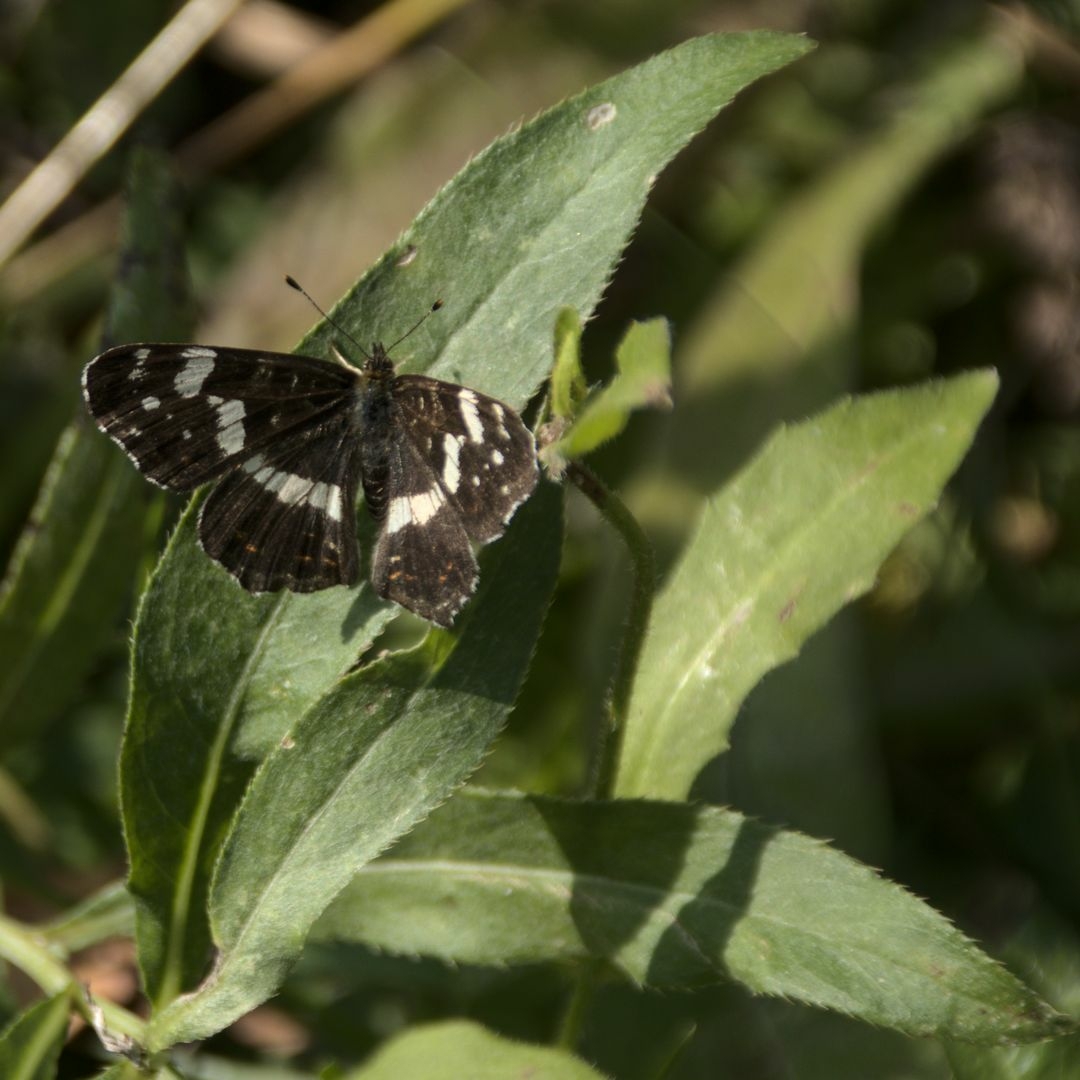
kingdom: Animalia
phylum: Arthropoda
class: Insecta
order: Lepidoptera
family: Nymphalidae
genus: Araschnia
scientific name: Araschnia levana
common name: Map butterfly
